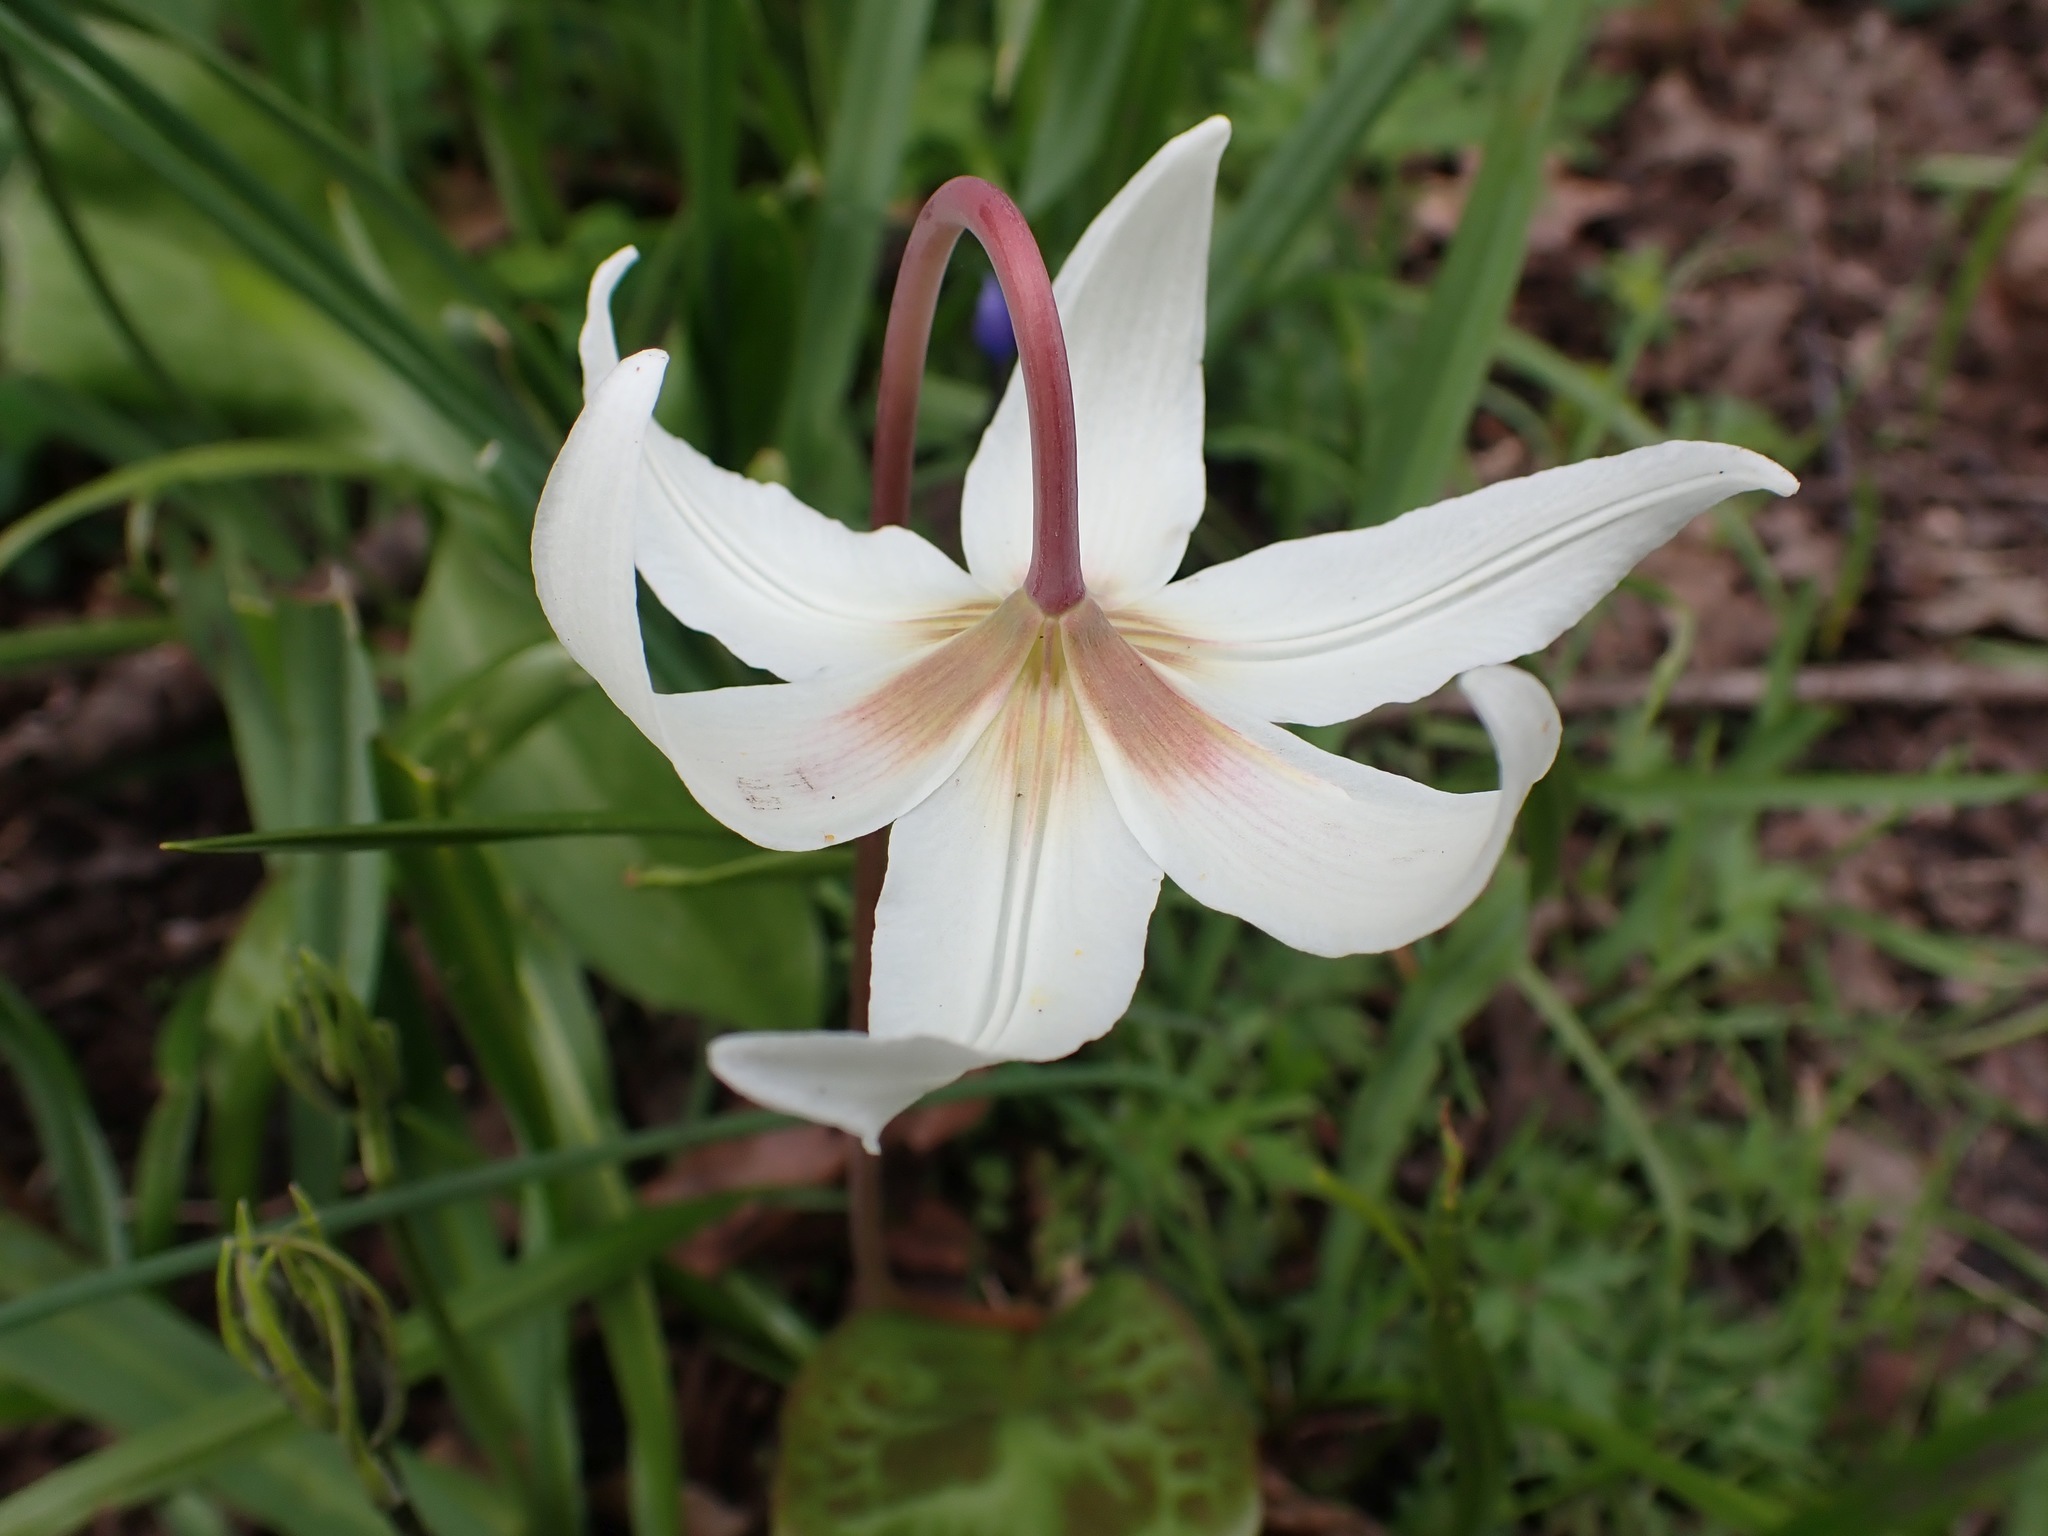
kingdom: Plantae
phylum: Tracheophyta
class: Liliopsida
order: Liliales
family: Liliaceae
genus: Erythronium
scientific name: Erythronium oregonum
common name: Giant adder's-tongue
